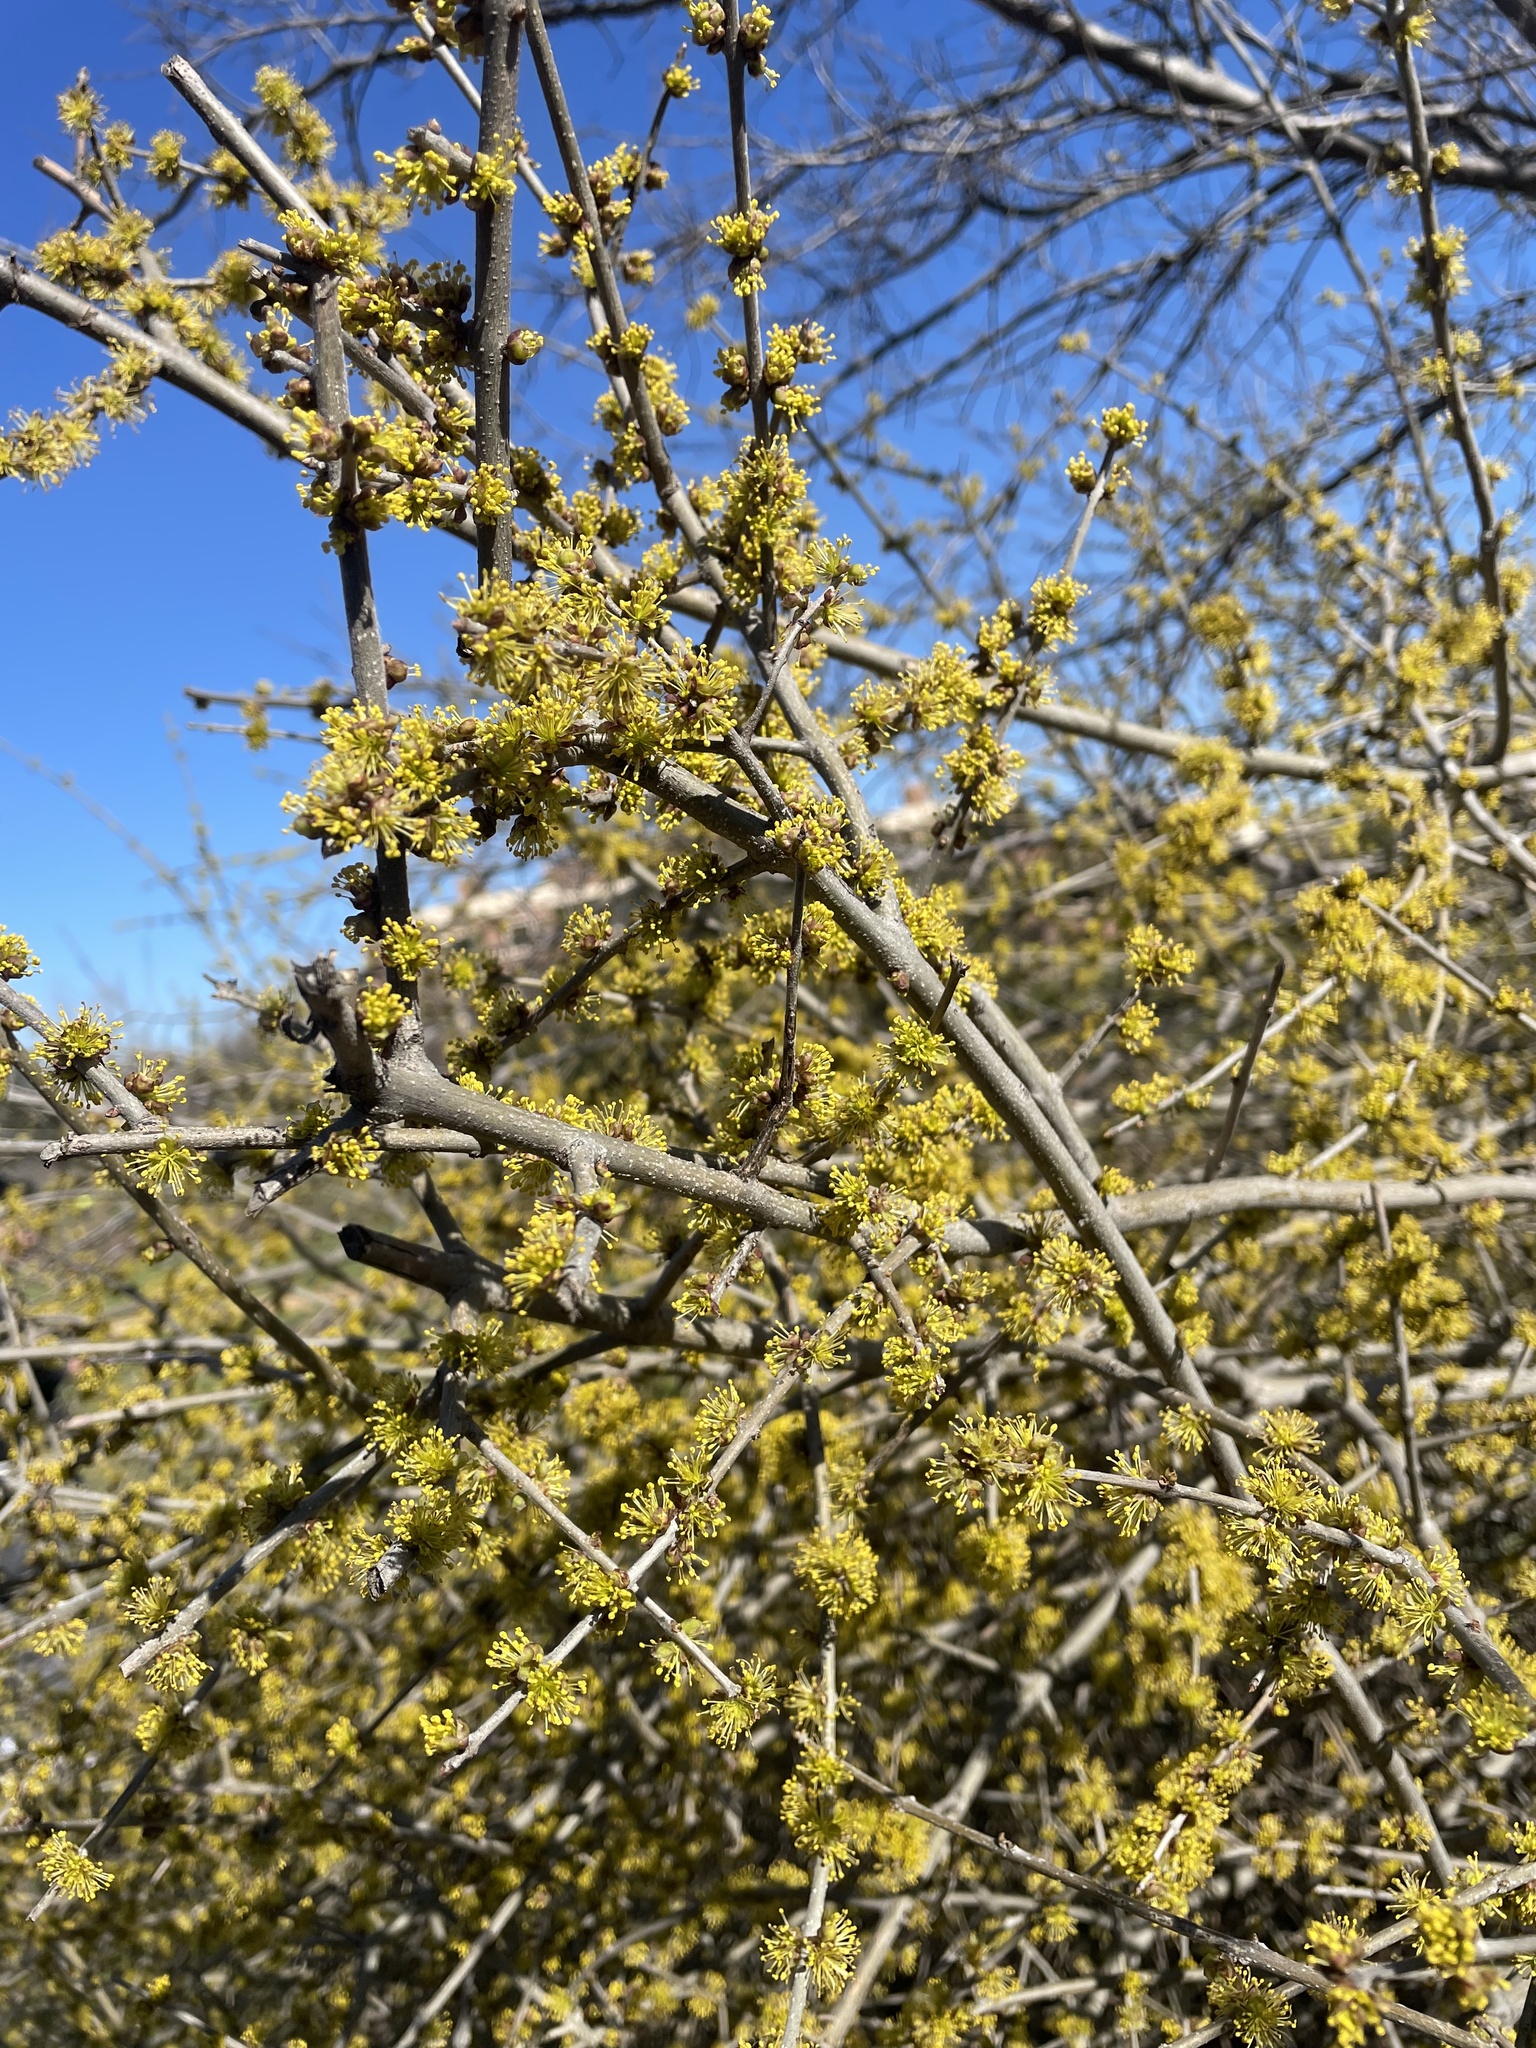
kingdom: Plantae
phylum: Tracheophyta
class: Magnoliopsida
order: Lamiales
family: Oleaceae
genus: Forestiera
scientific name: Forestiera pubescens
